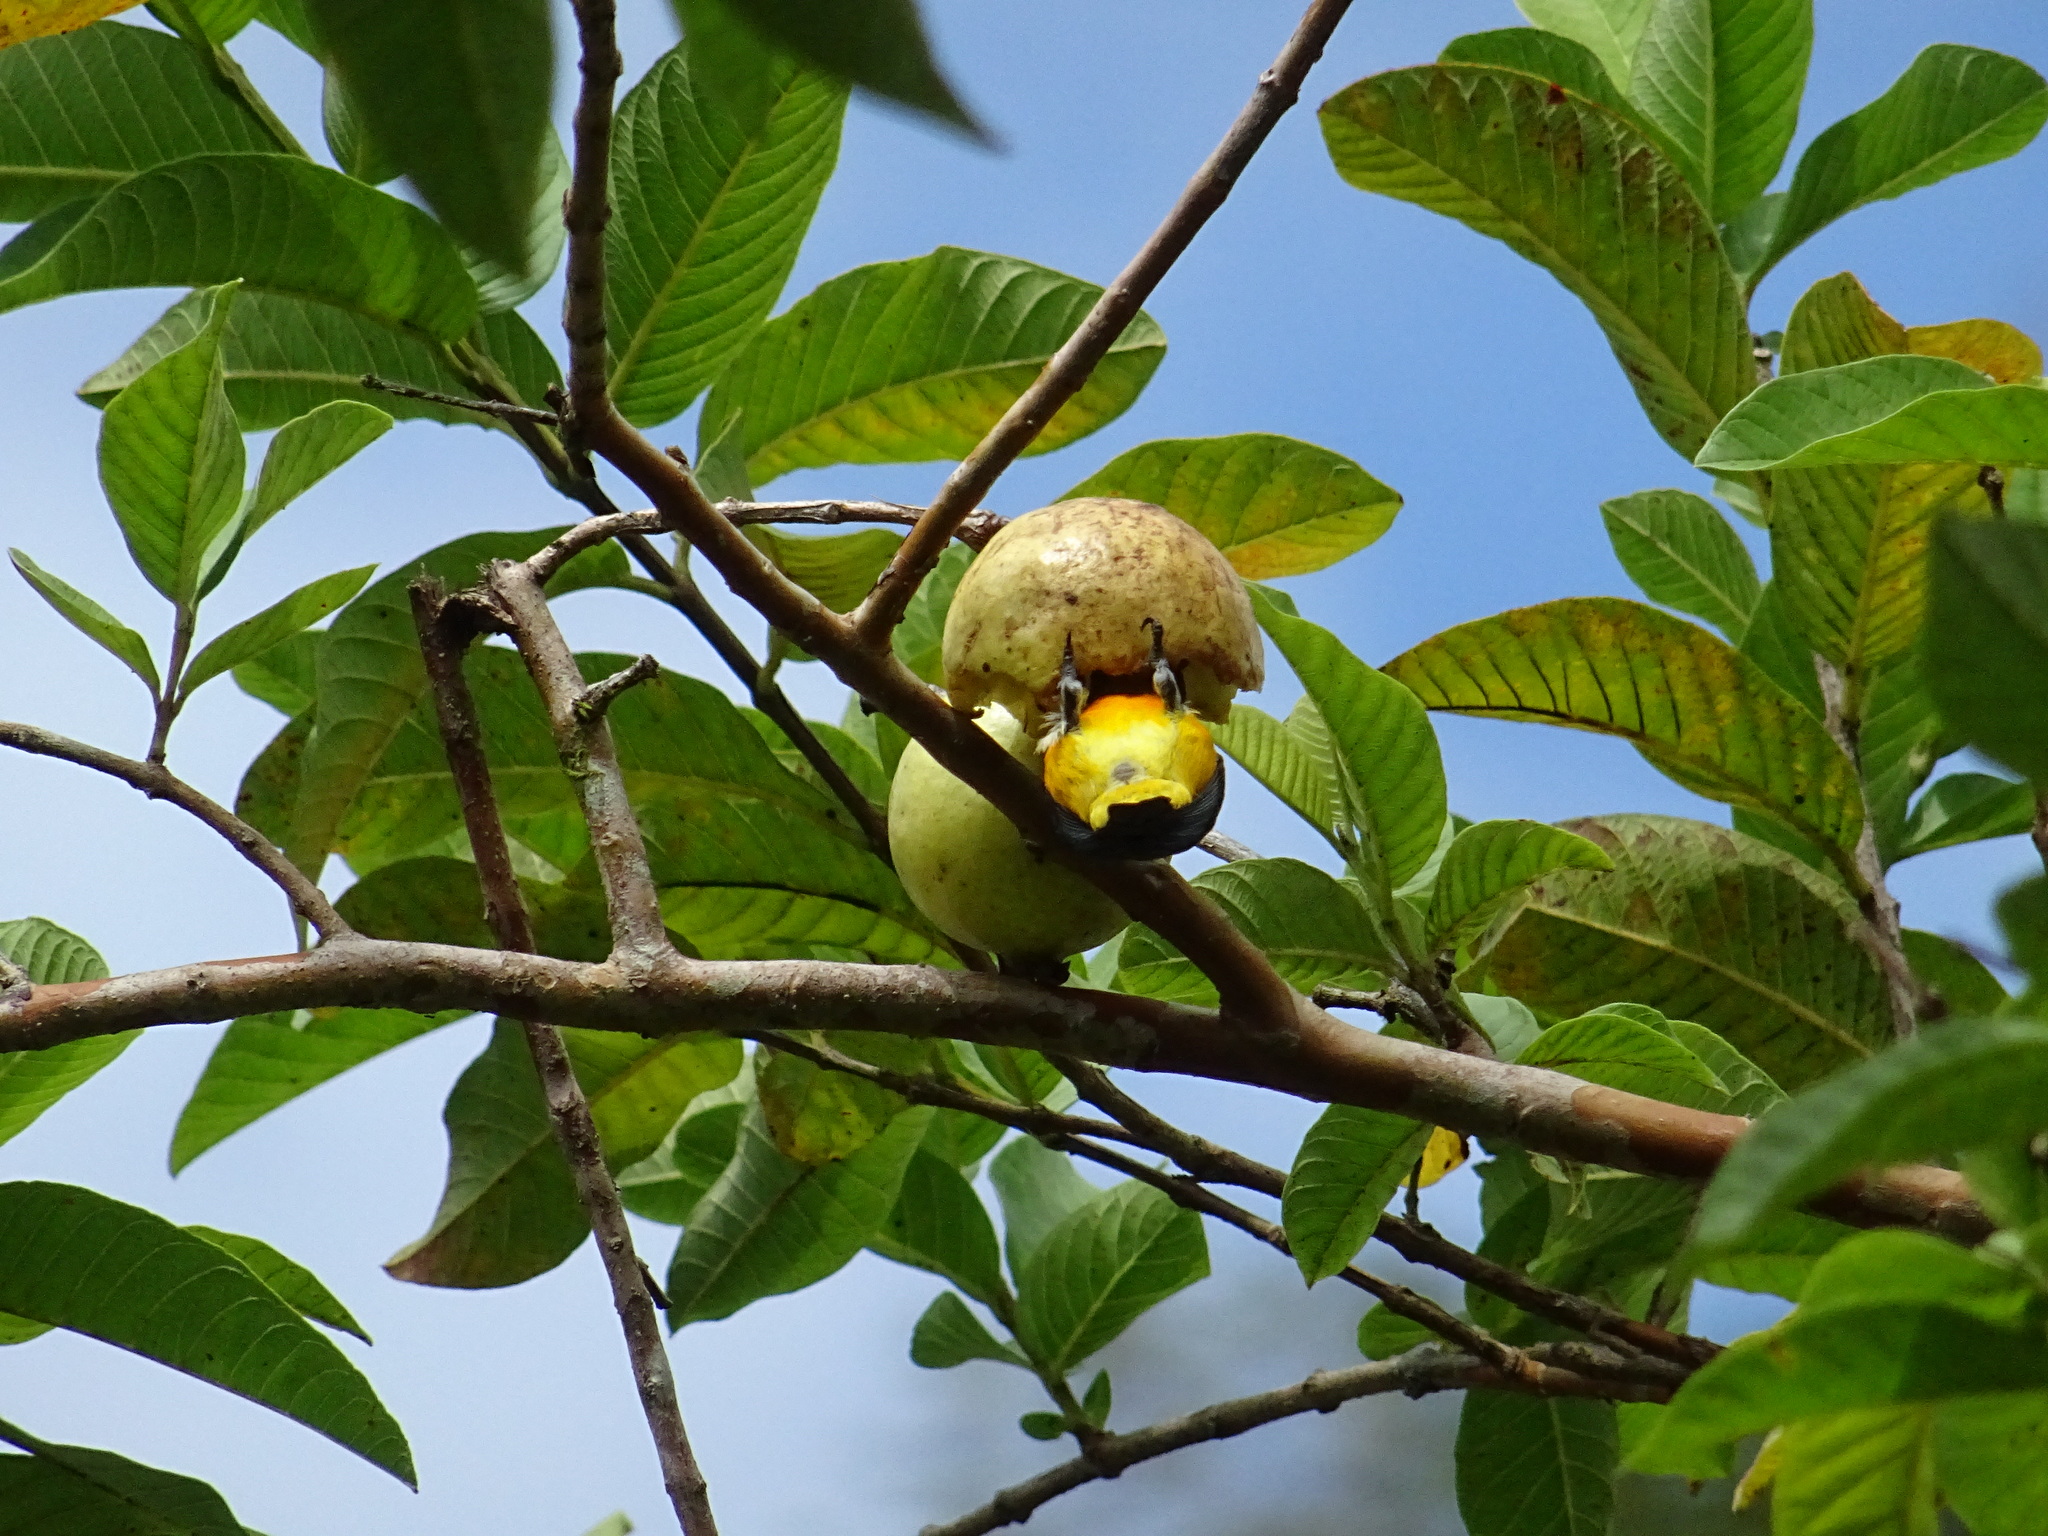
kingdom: Animalia
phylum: Chordata
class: Aves
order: Passeriformes
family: Dicaeidae
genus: Prionochilus
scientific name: Prionochilus xanthopygius
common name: Yellow-rumped flowerpecker
